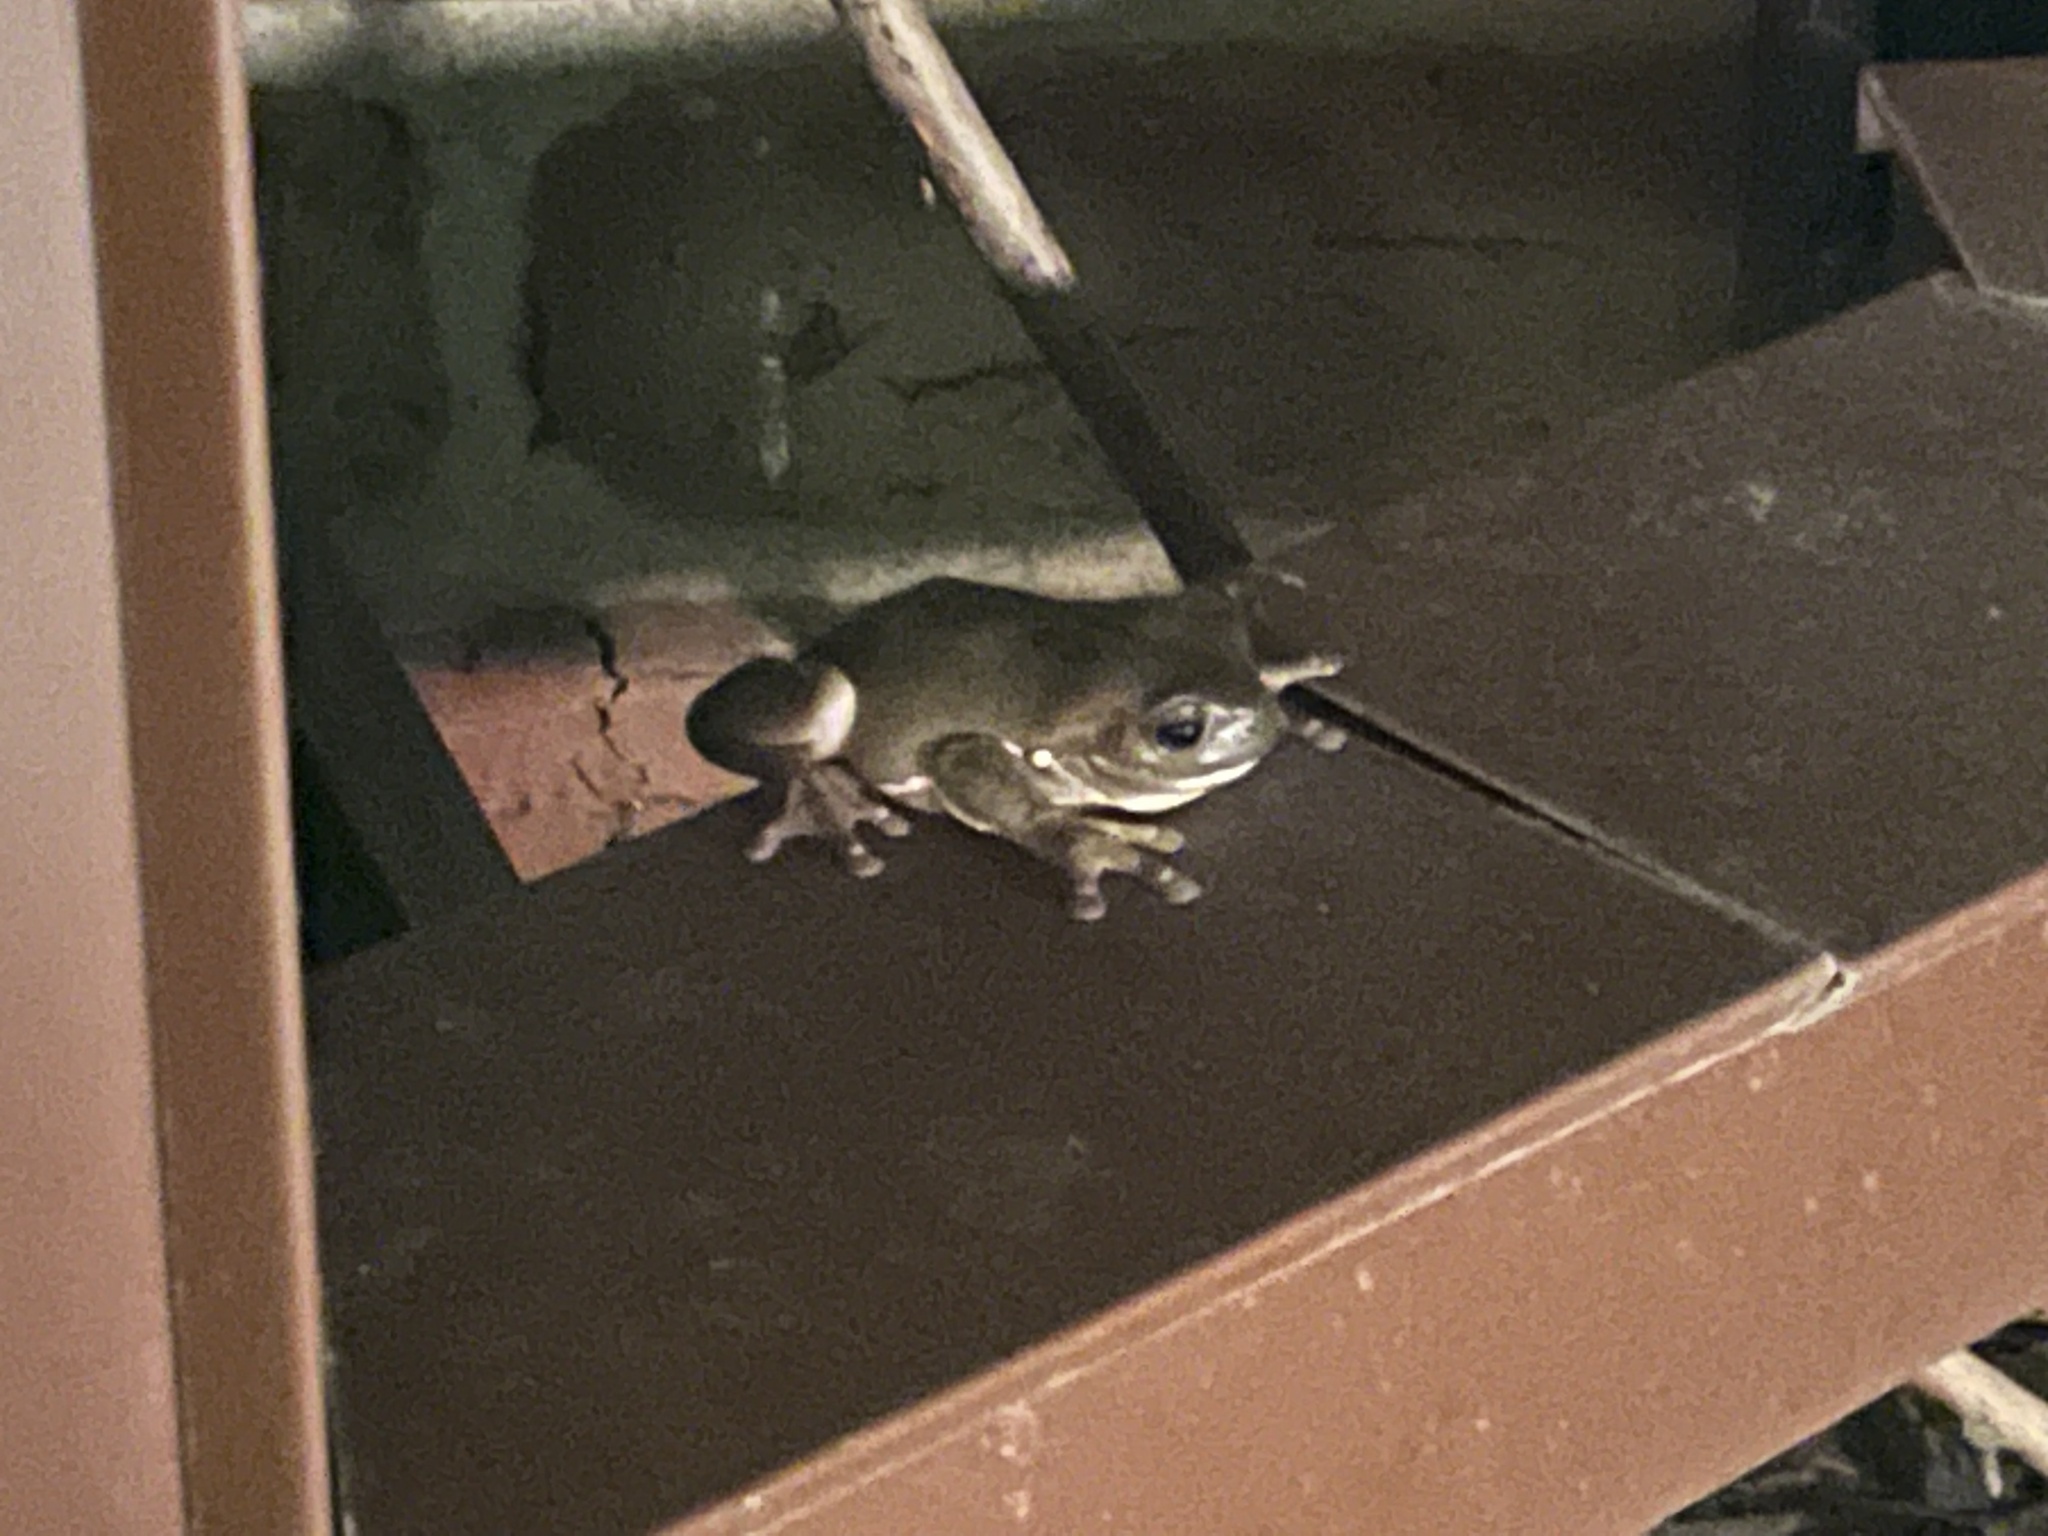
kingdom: Animalia
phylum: Chordata
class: Amphibia
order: Anura
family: Pelodryadidae
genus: Ranoidea
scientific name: Ranoidea caerulea
